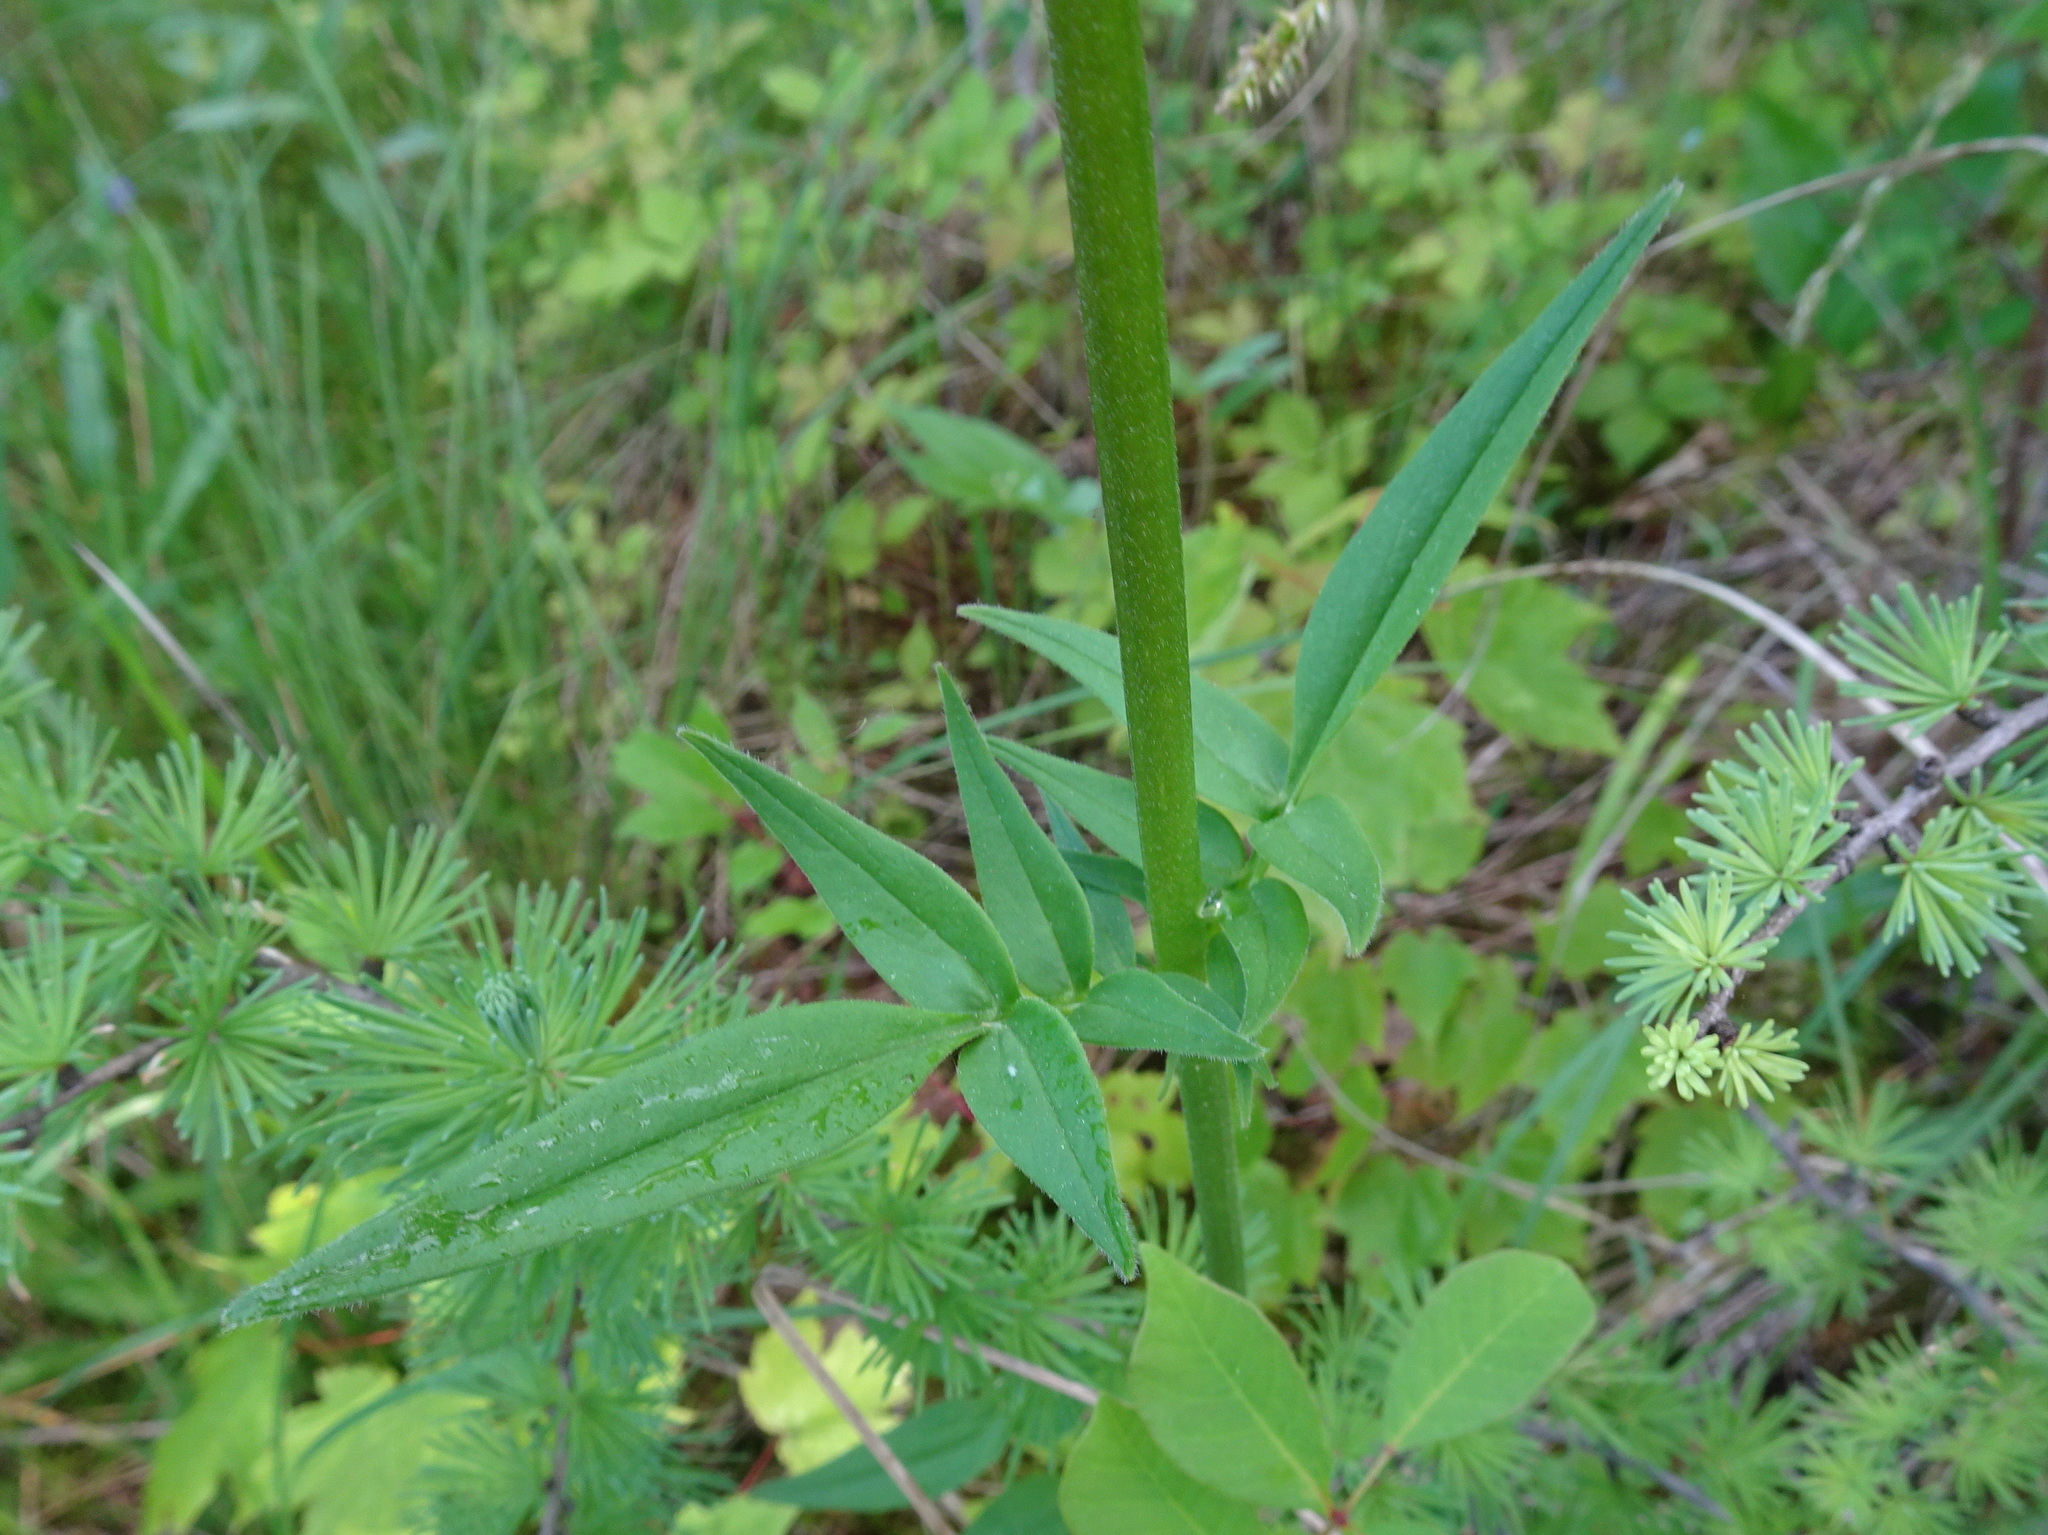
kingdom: Plantae
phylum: Tracheophyta
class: Magnoliopsida
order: Dipsacales
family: Caprifoliaceae
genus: Valeriana
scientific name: Valeriana uliginosa
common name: Marsh valerian
